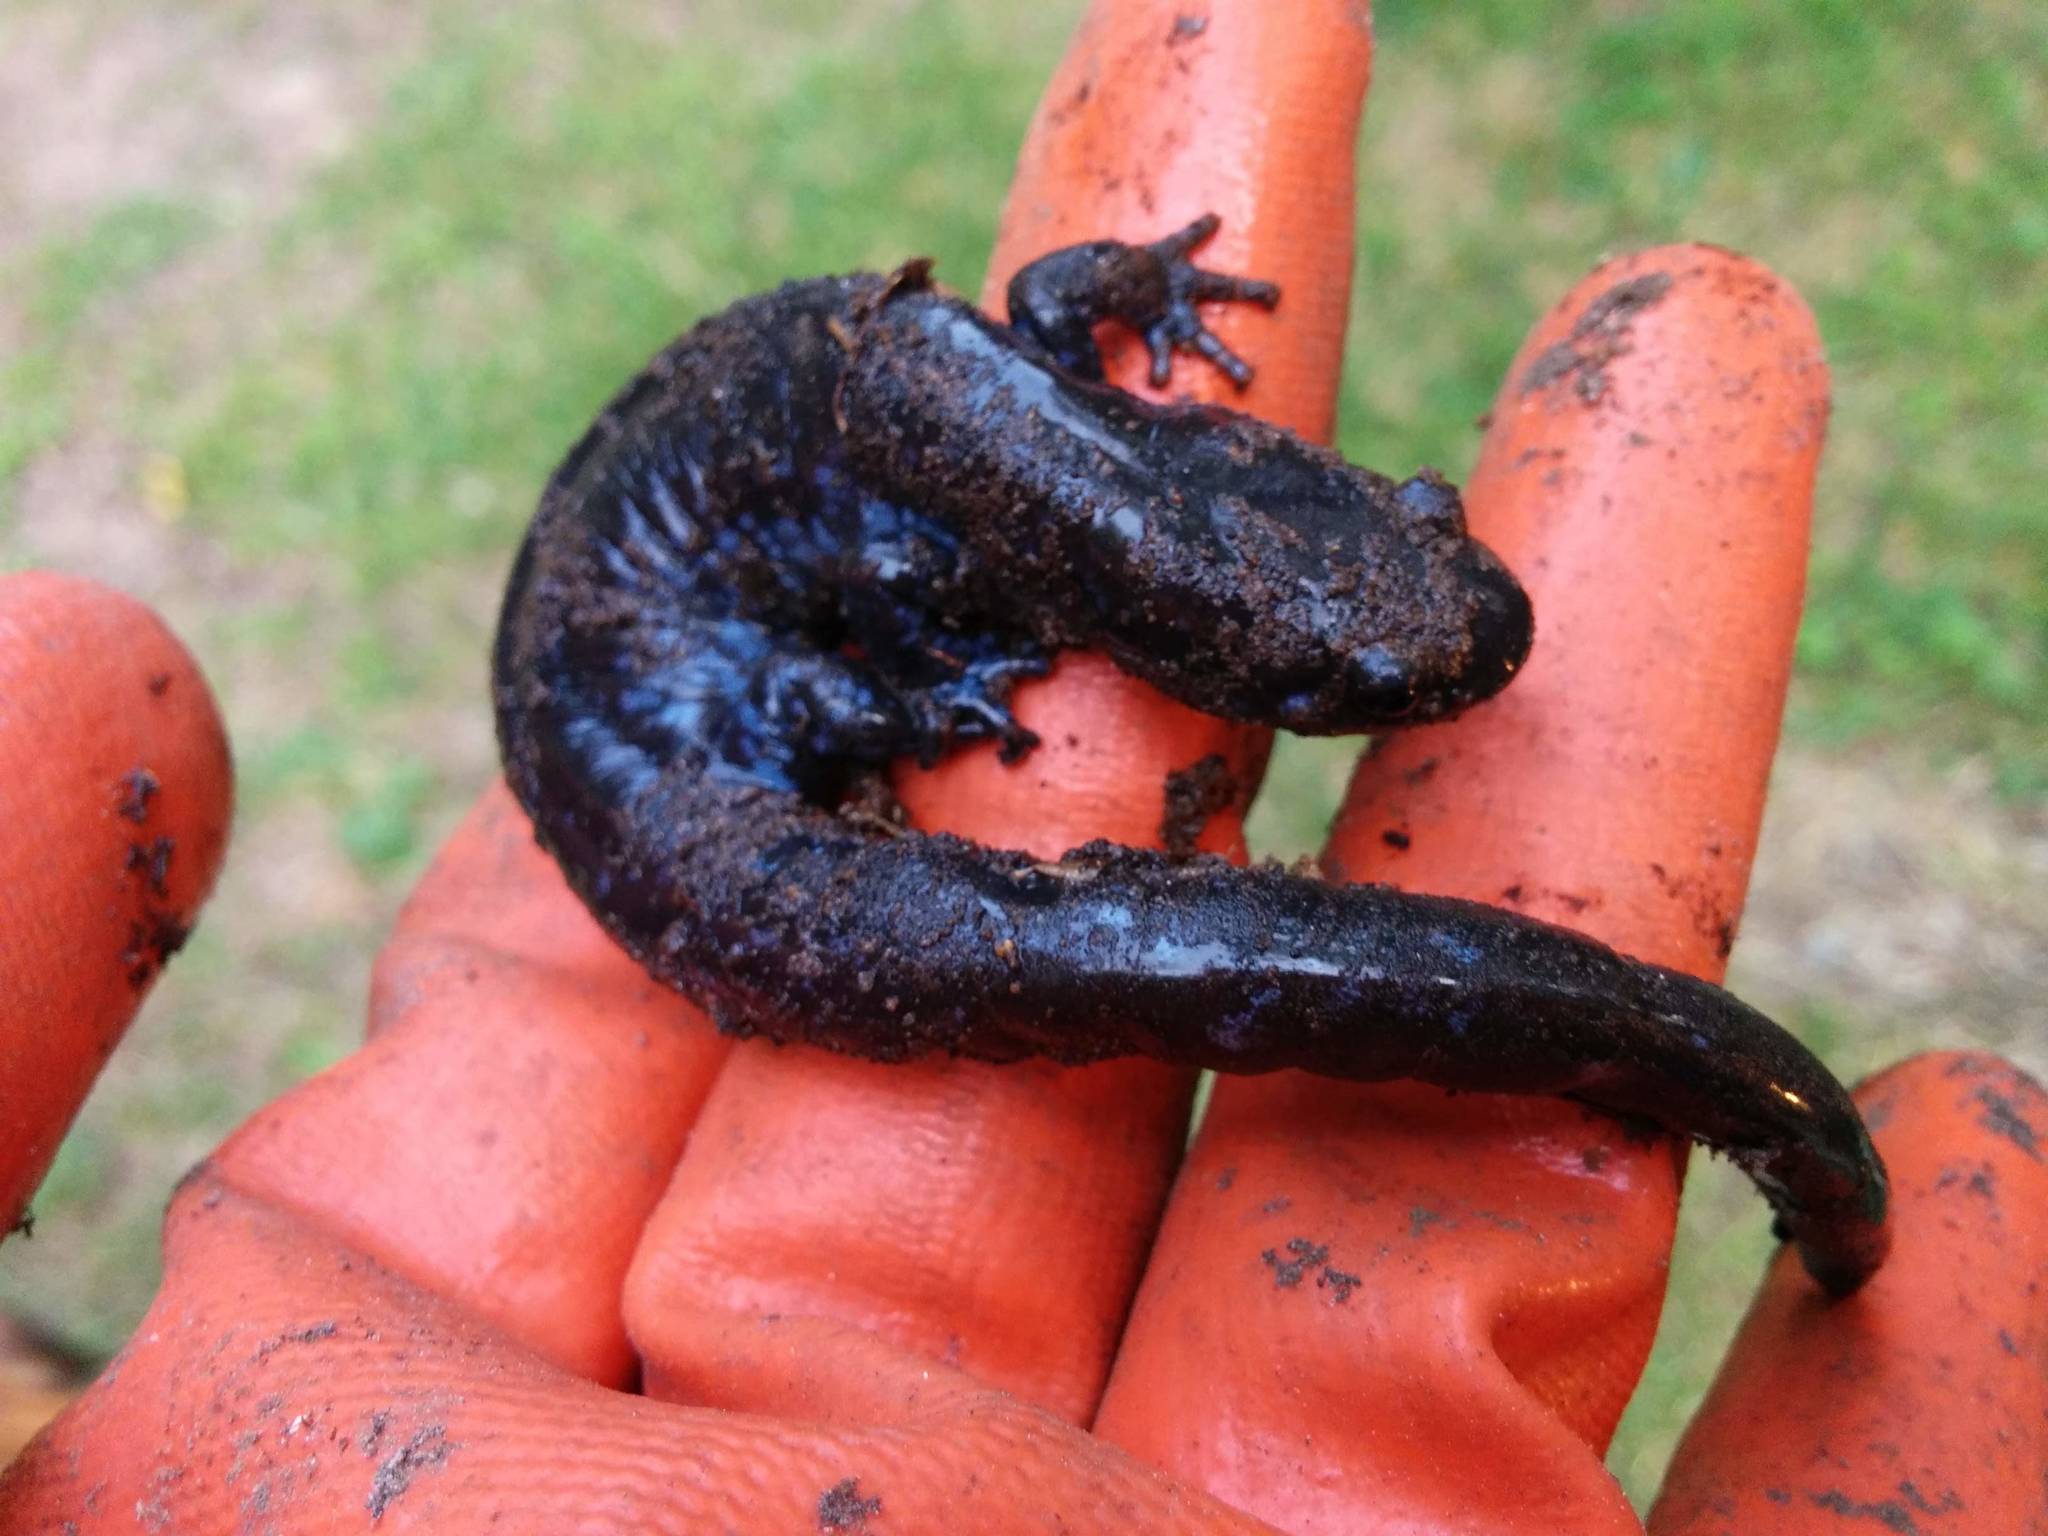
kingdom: Animalia
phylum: Chordata
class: Amphibia
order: Caudata
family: Ambystomatidae
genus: Ambystoma
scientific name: Ambystoma laterale
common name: Blue-spotted salamander
